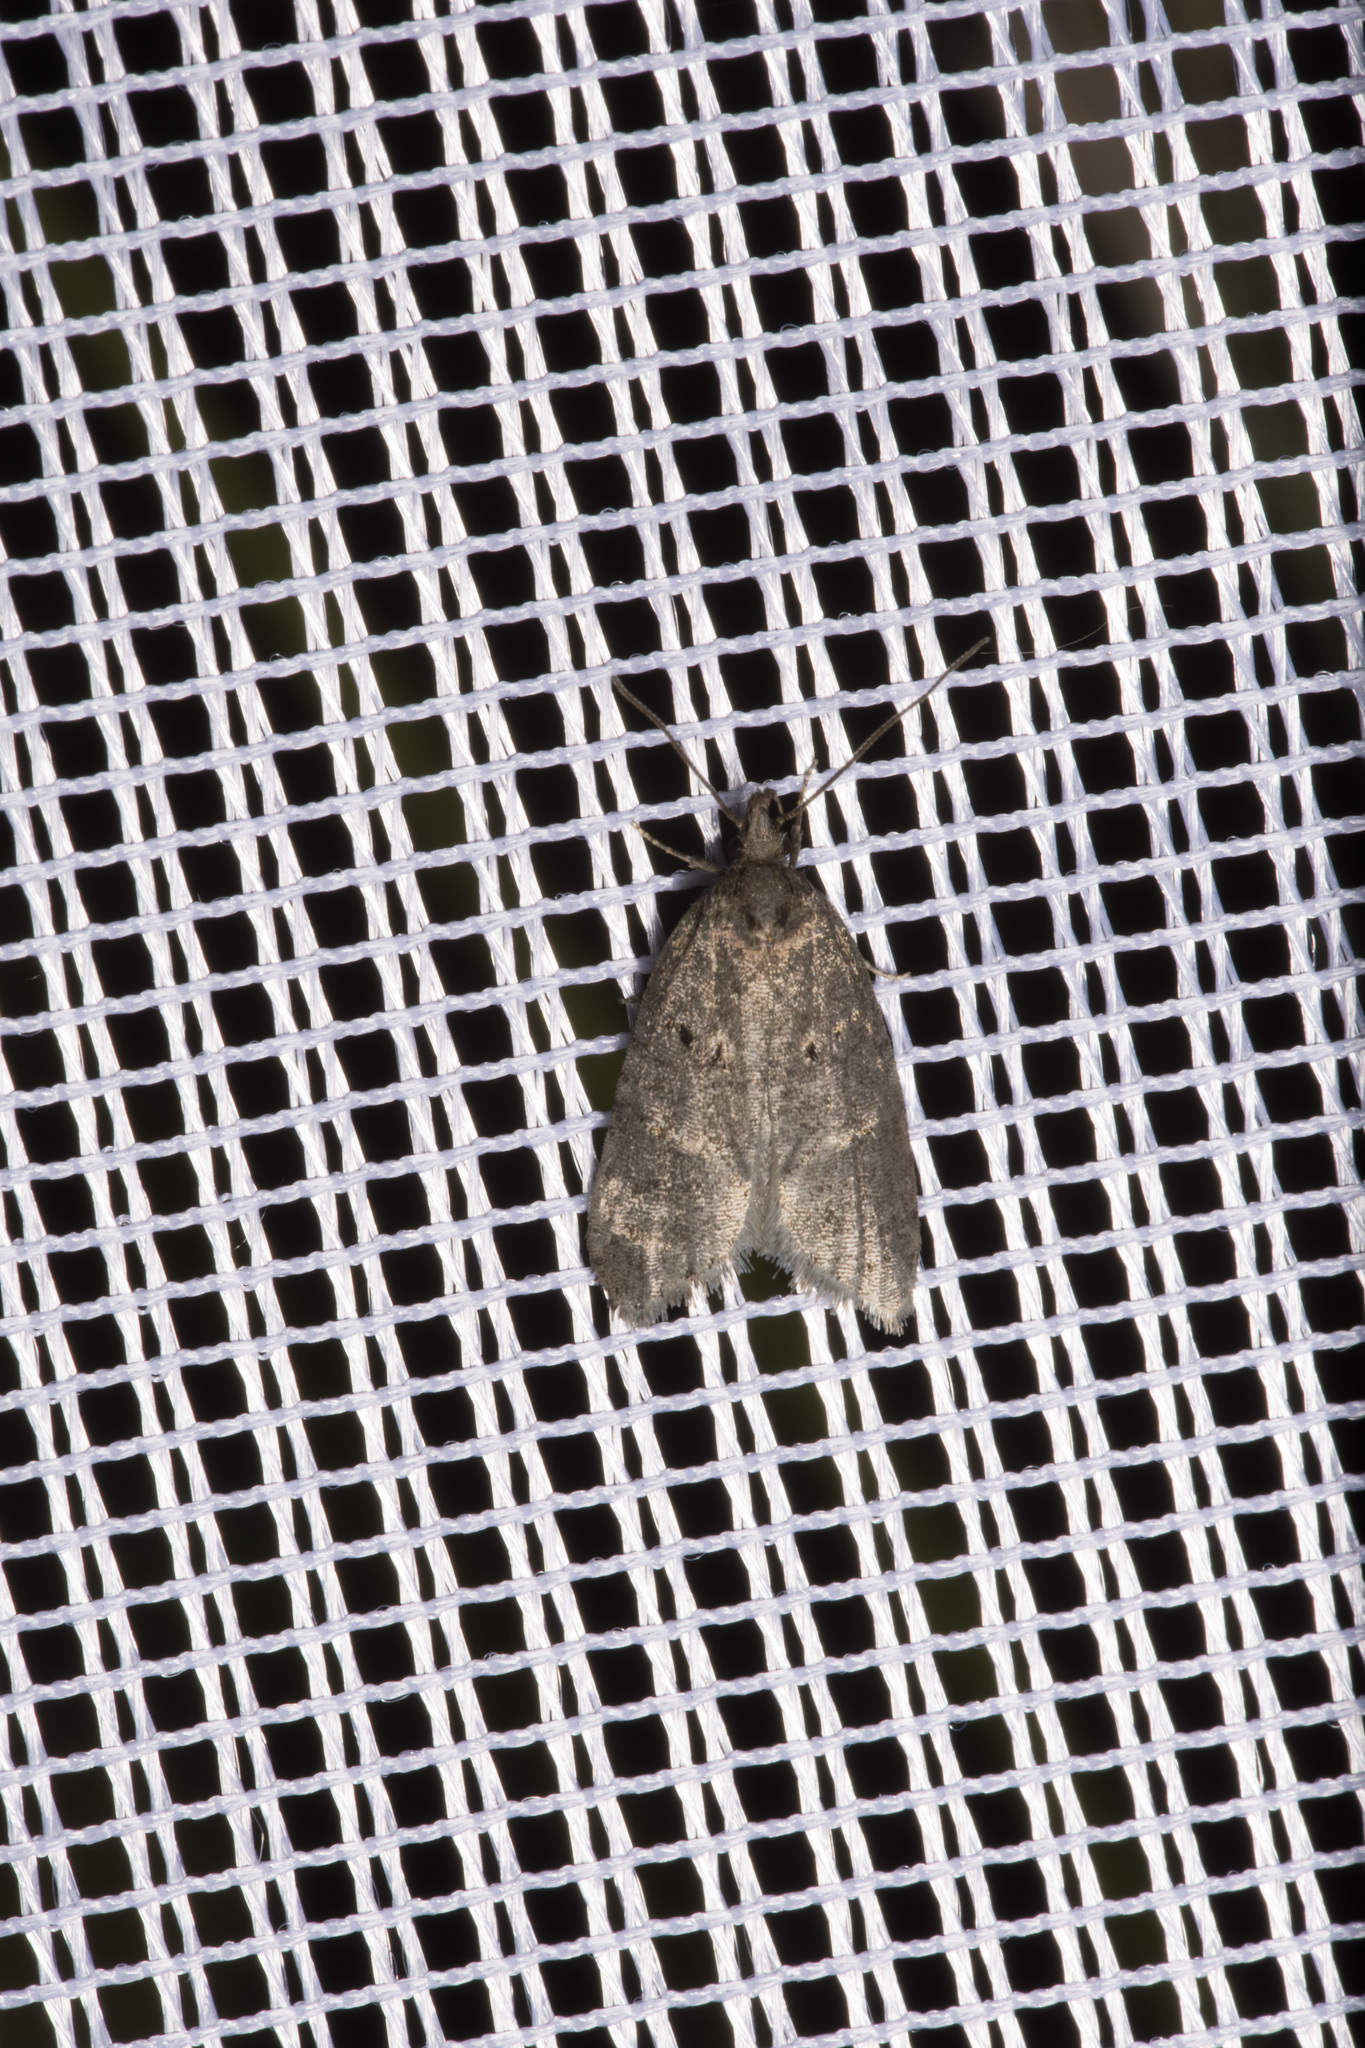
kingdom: Animalia
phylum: Arthropoda
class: Insecta
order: Lepidoptera
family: Oecophoridae
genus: Luquetia
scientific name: Luquetia lobella
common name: Sloe flat-body
